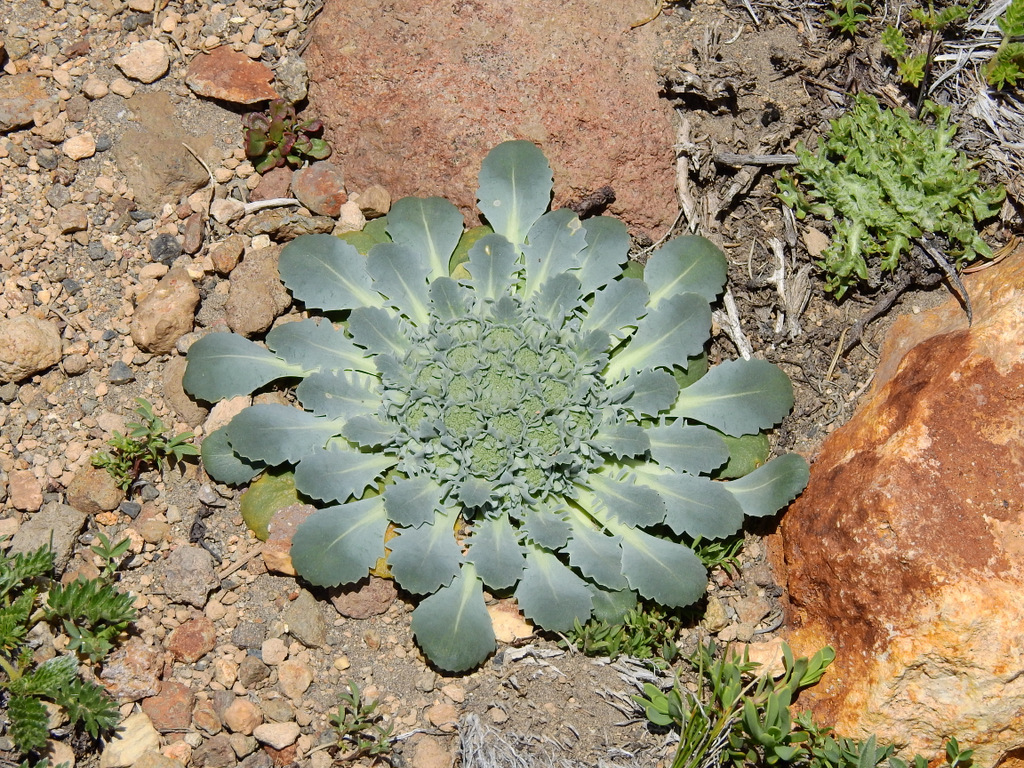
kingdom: Plantae
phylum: Tracheophyta
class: Magnoliopsida
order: Asterales
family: Calyceraceae
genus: Gamocarpha
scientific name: Gamocarpha scapigera
